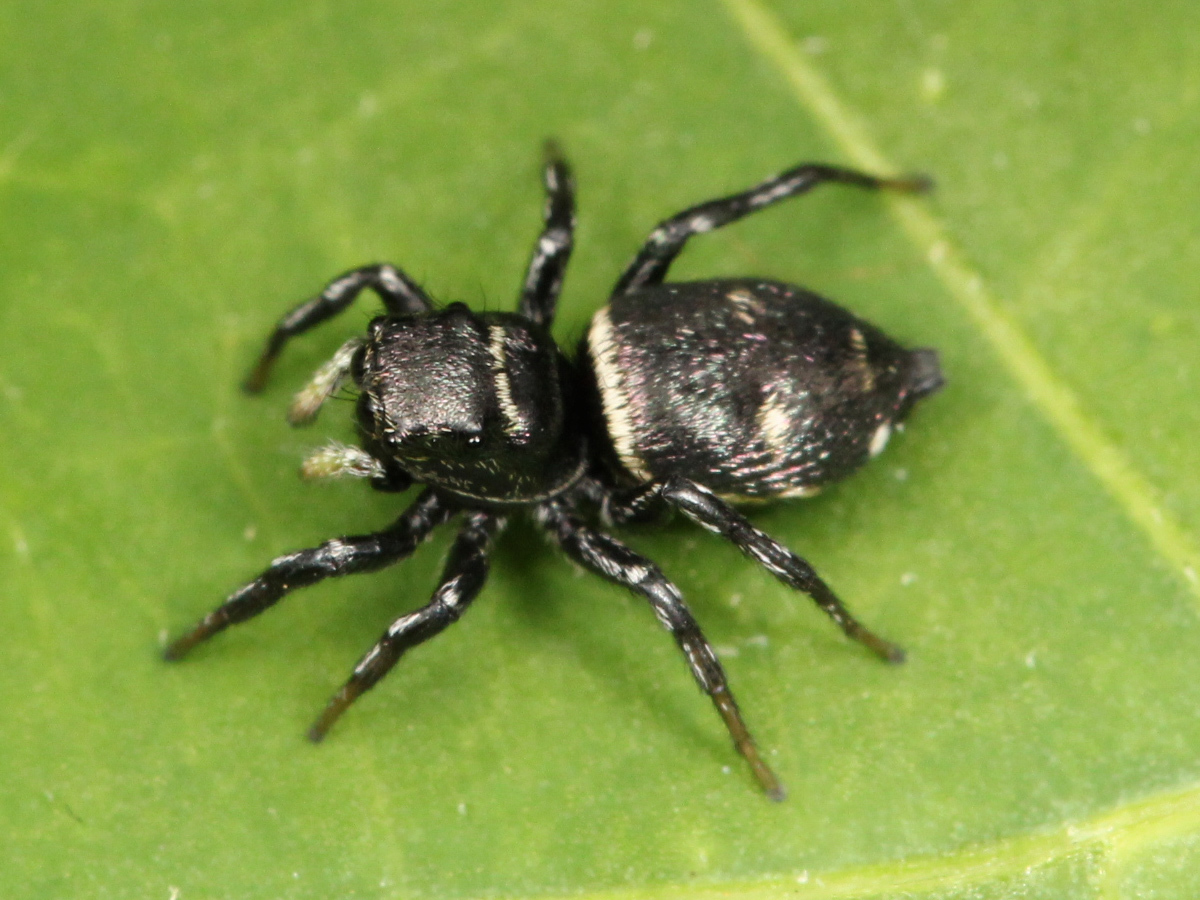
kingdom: Animalia
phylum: Arthropoda
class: Arachnida
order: Araneae
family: Salticidae
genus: Heliophanus
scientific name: Heliophanus
